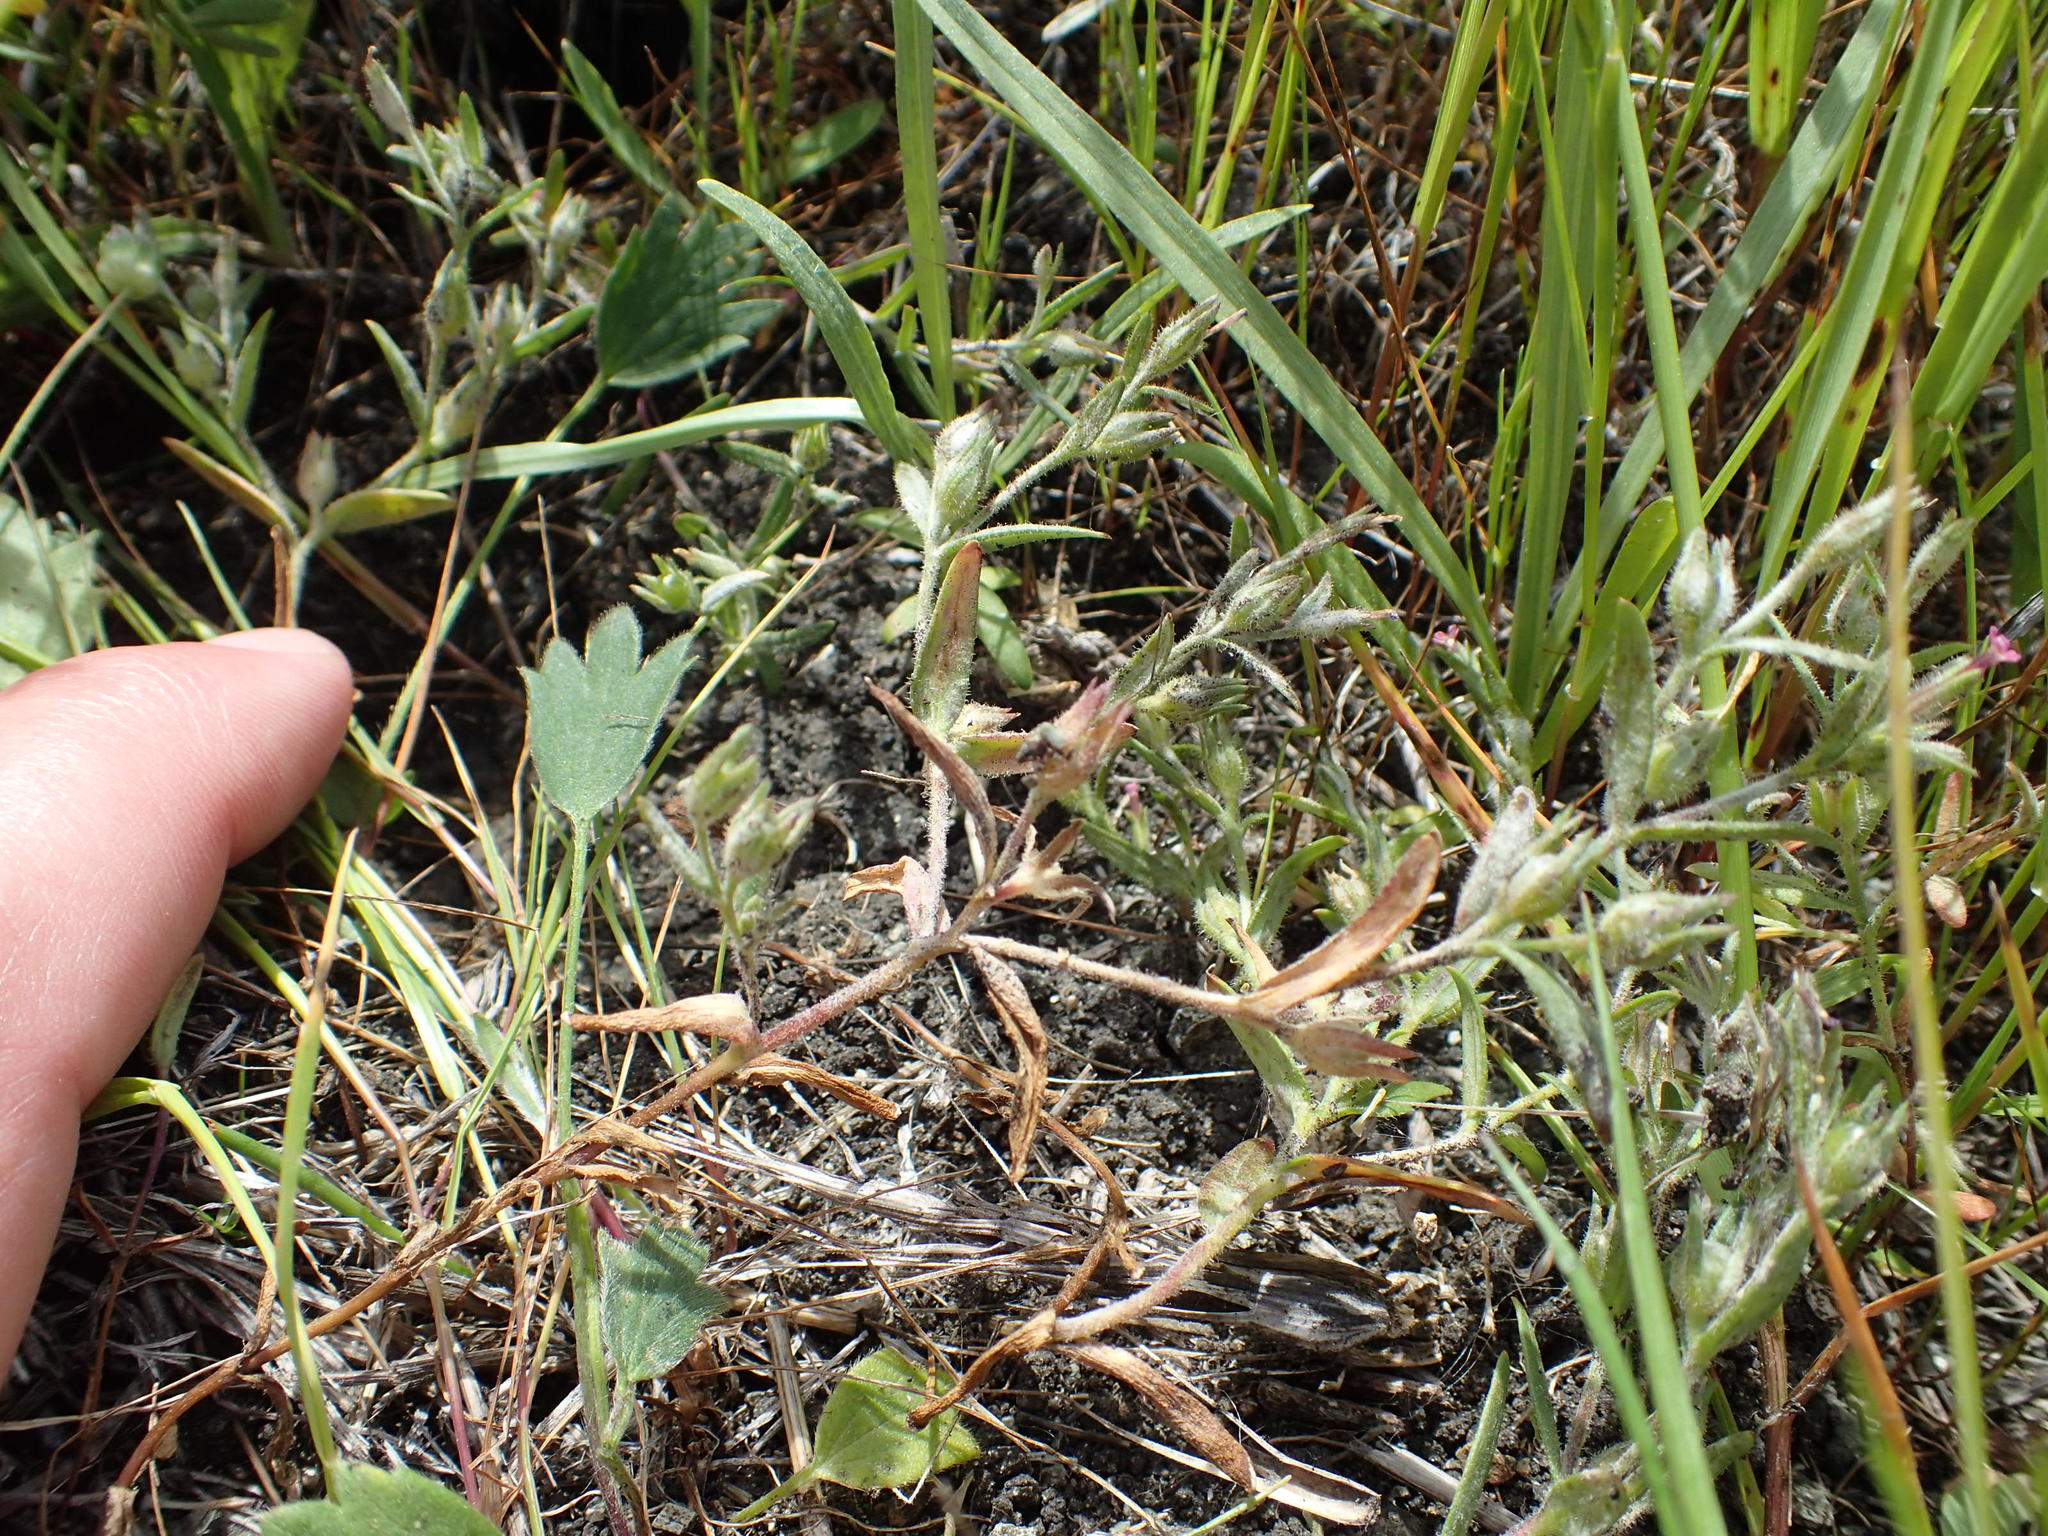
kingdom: Plantae
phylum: Tracheophyta
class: Magnoliopsida
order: Ericales
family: Polemoniaceae
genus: Phlox
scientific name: Phlox gracilis
